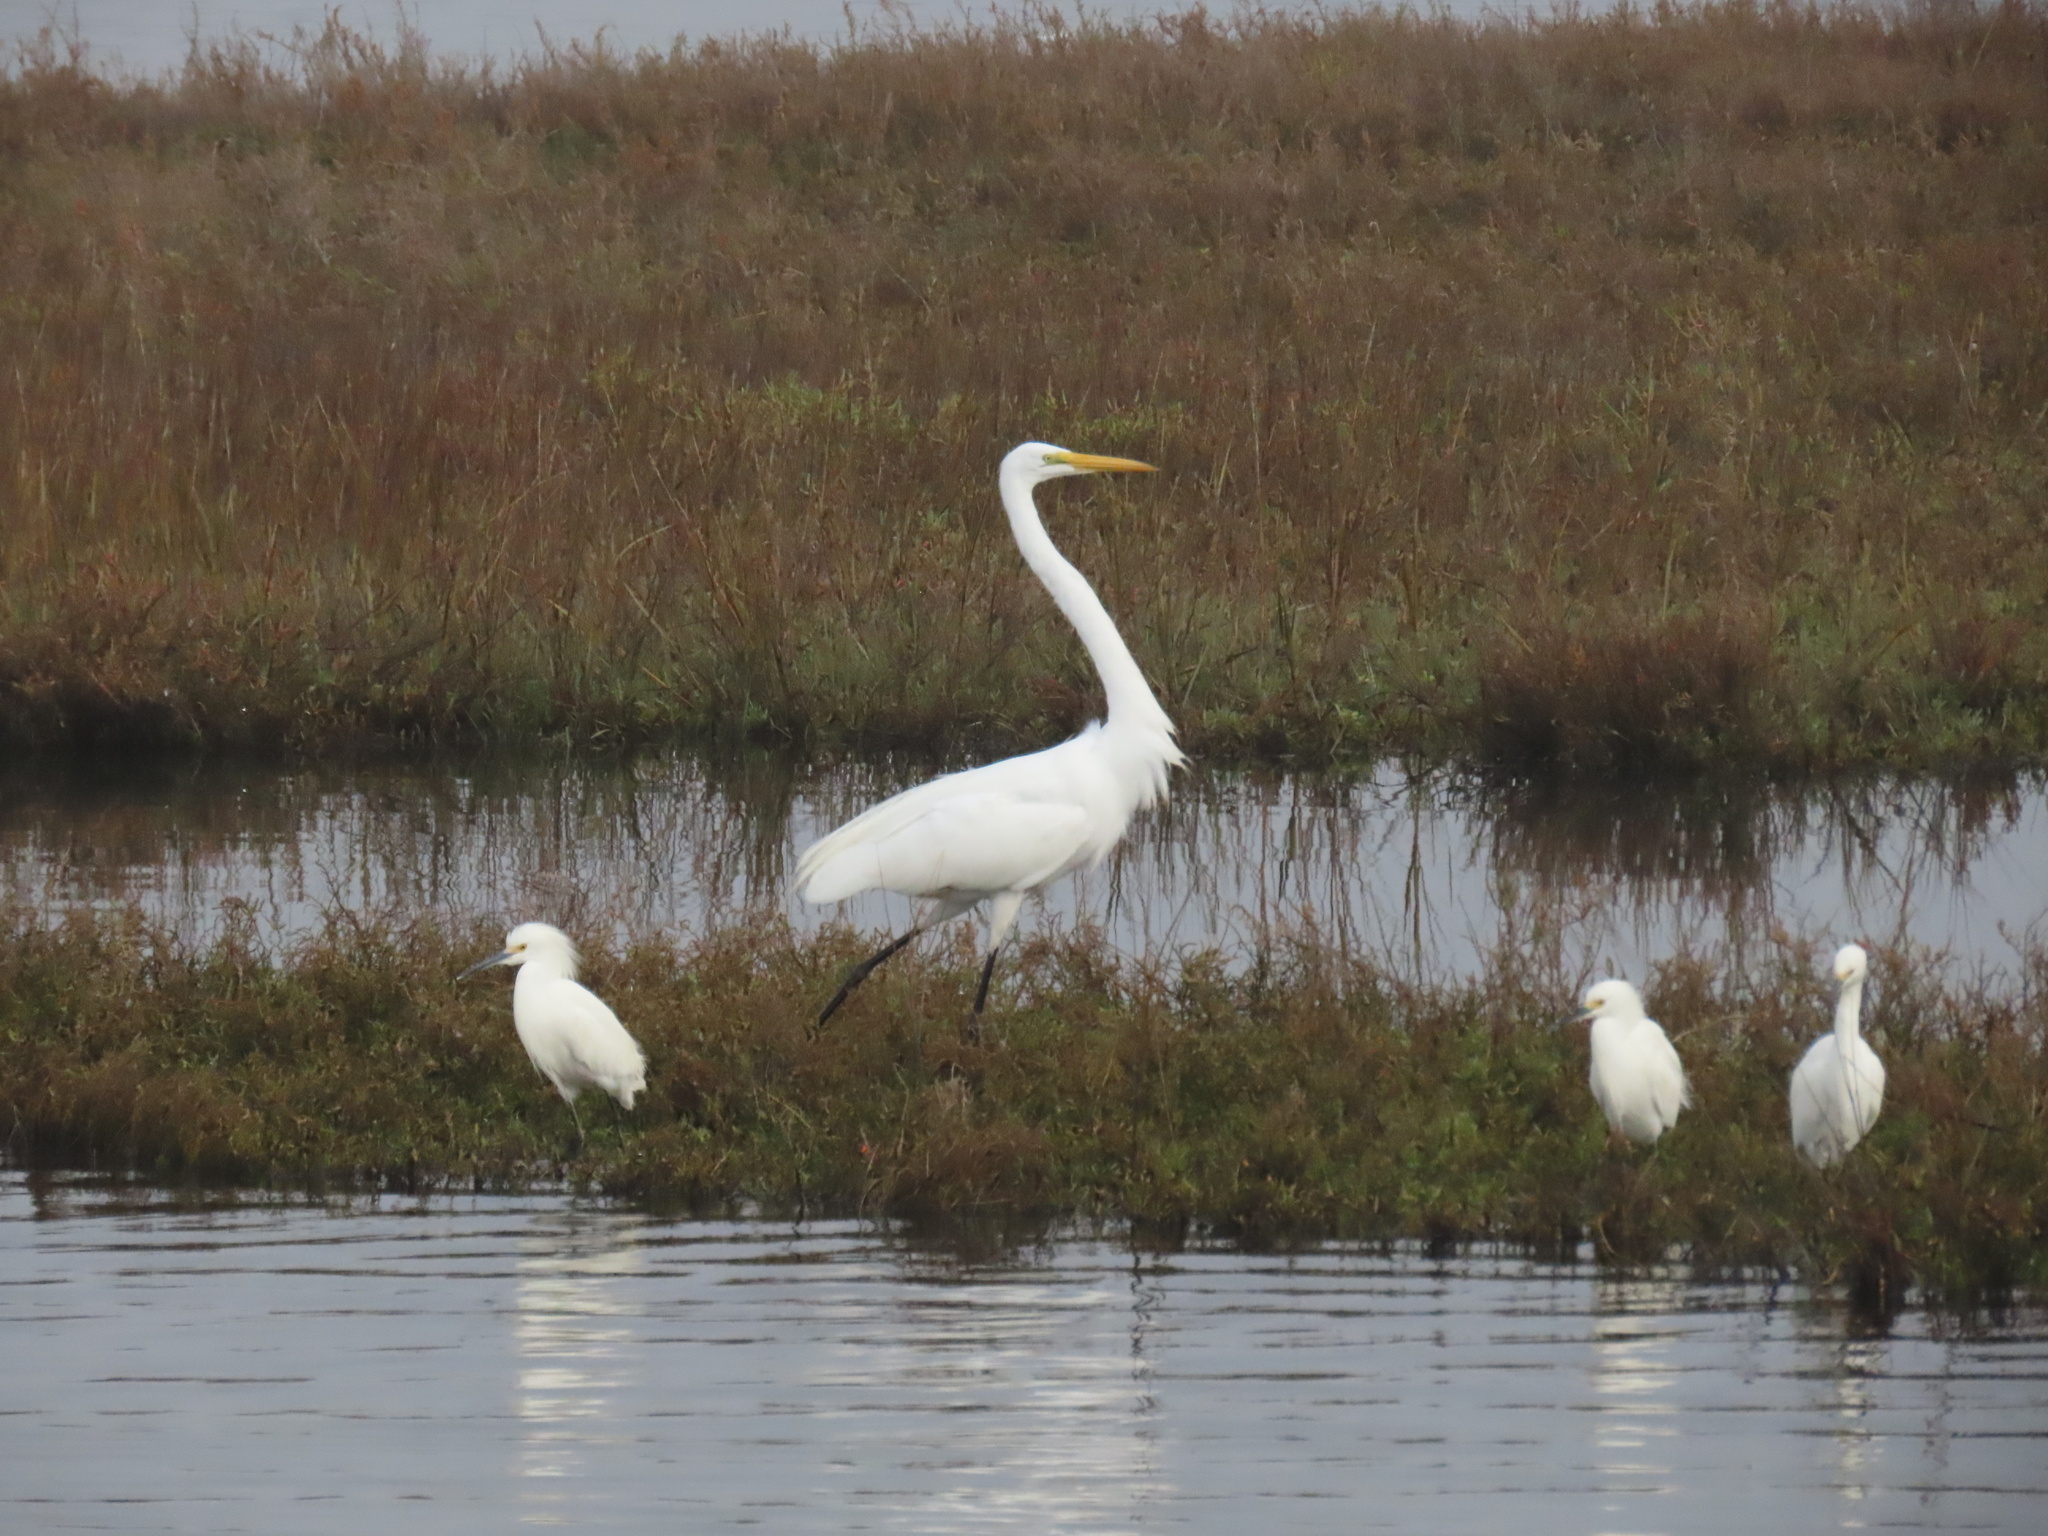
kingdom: Animalia
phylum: Chordata
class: Aves
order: Pelecaniformes
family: Ardeidae
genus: Egretta
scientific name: Egretta thula
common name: Snowy egret
